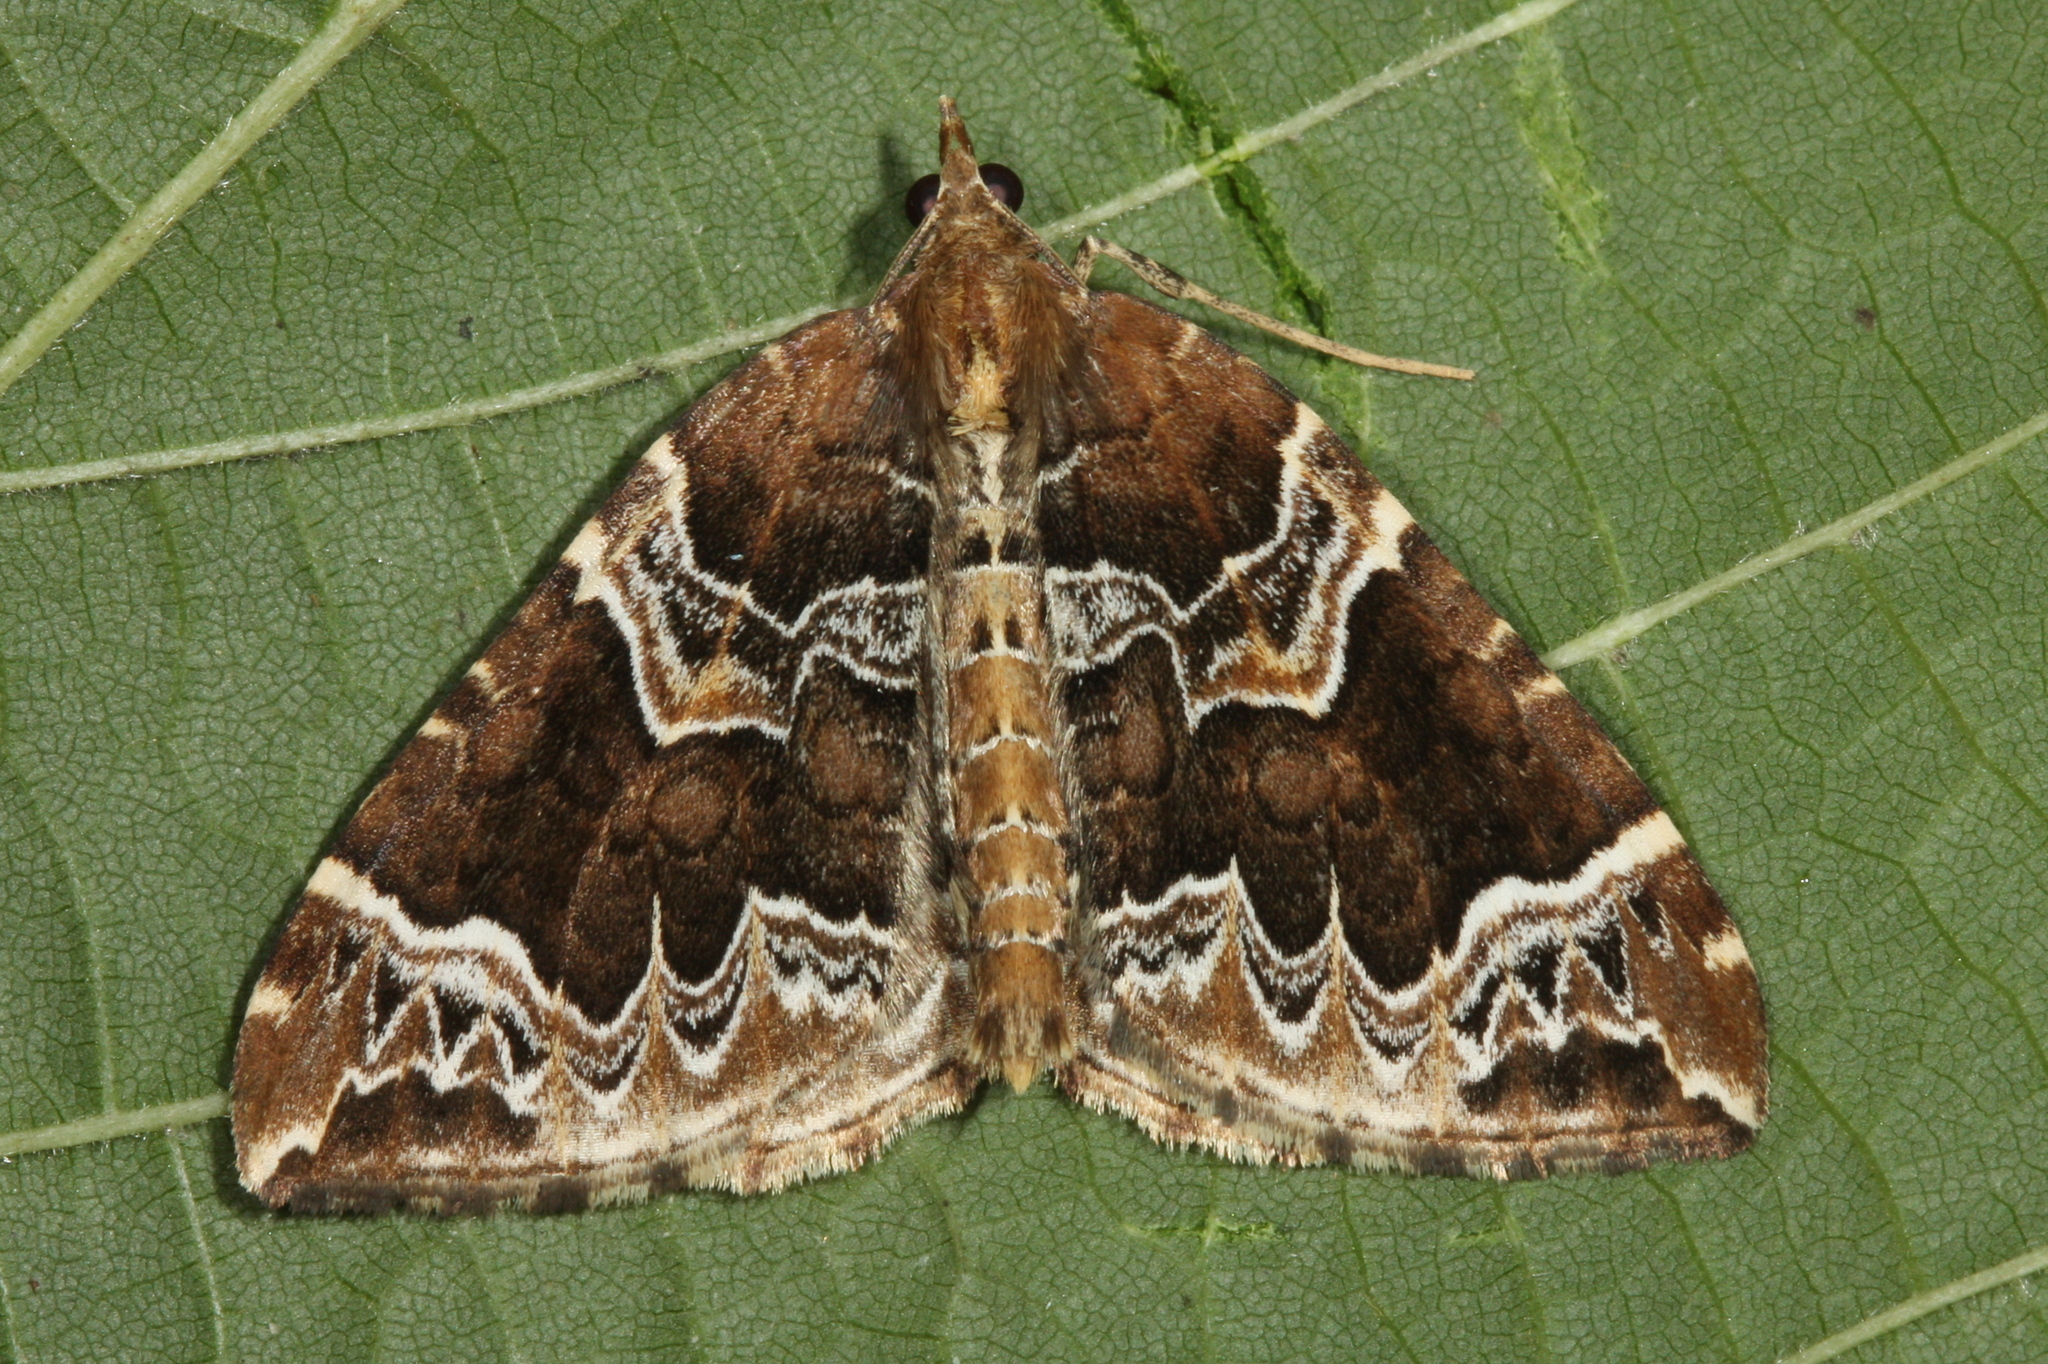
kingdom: Animalia
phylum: Arthropoda
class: Insecta
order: Lepidoptera
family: Geometridae
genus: Eulithis
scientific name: Eulithis prunata
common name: Phoenix
